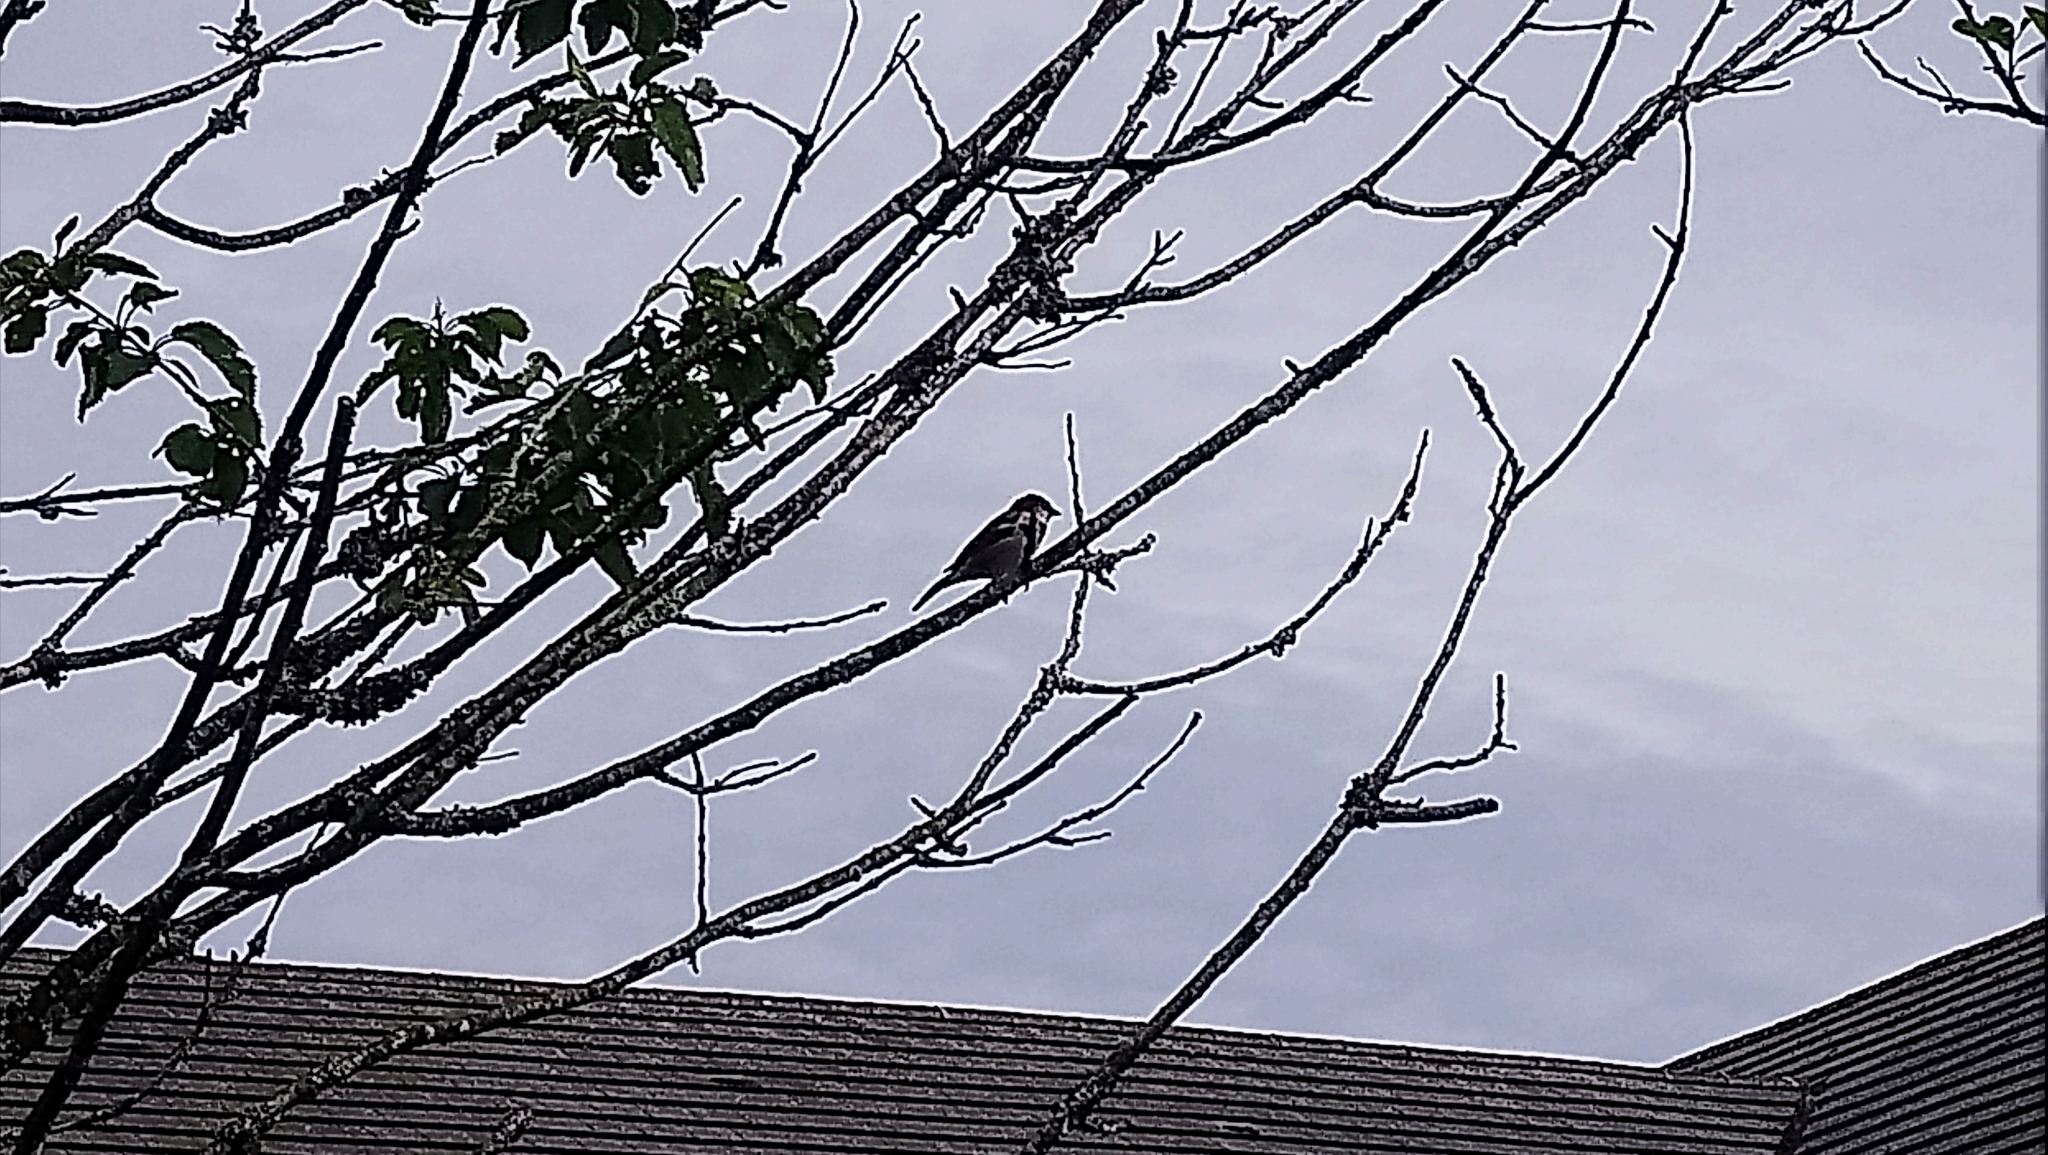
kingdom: Animalia
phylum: Chordata
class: Aves
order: Passeriformes
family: Passeridae
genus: Passer
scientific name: Passer domesticus
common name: House sparrow
